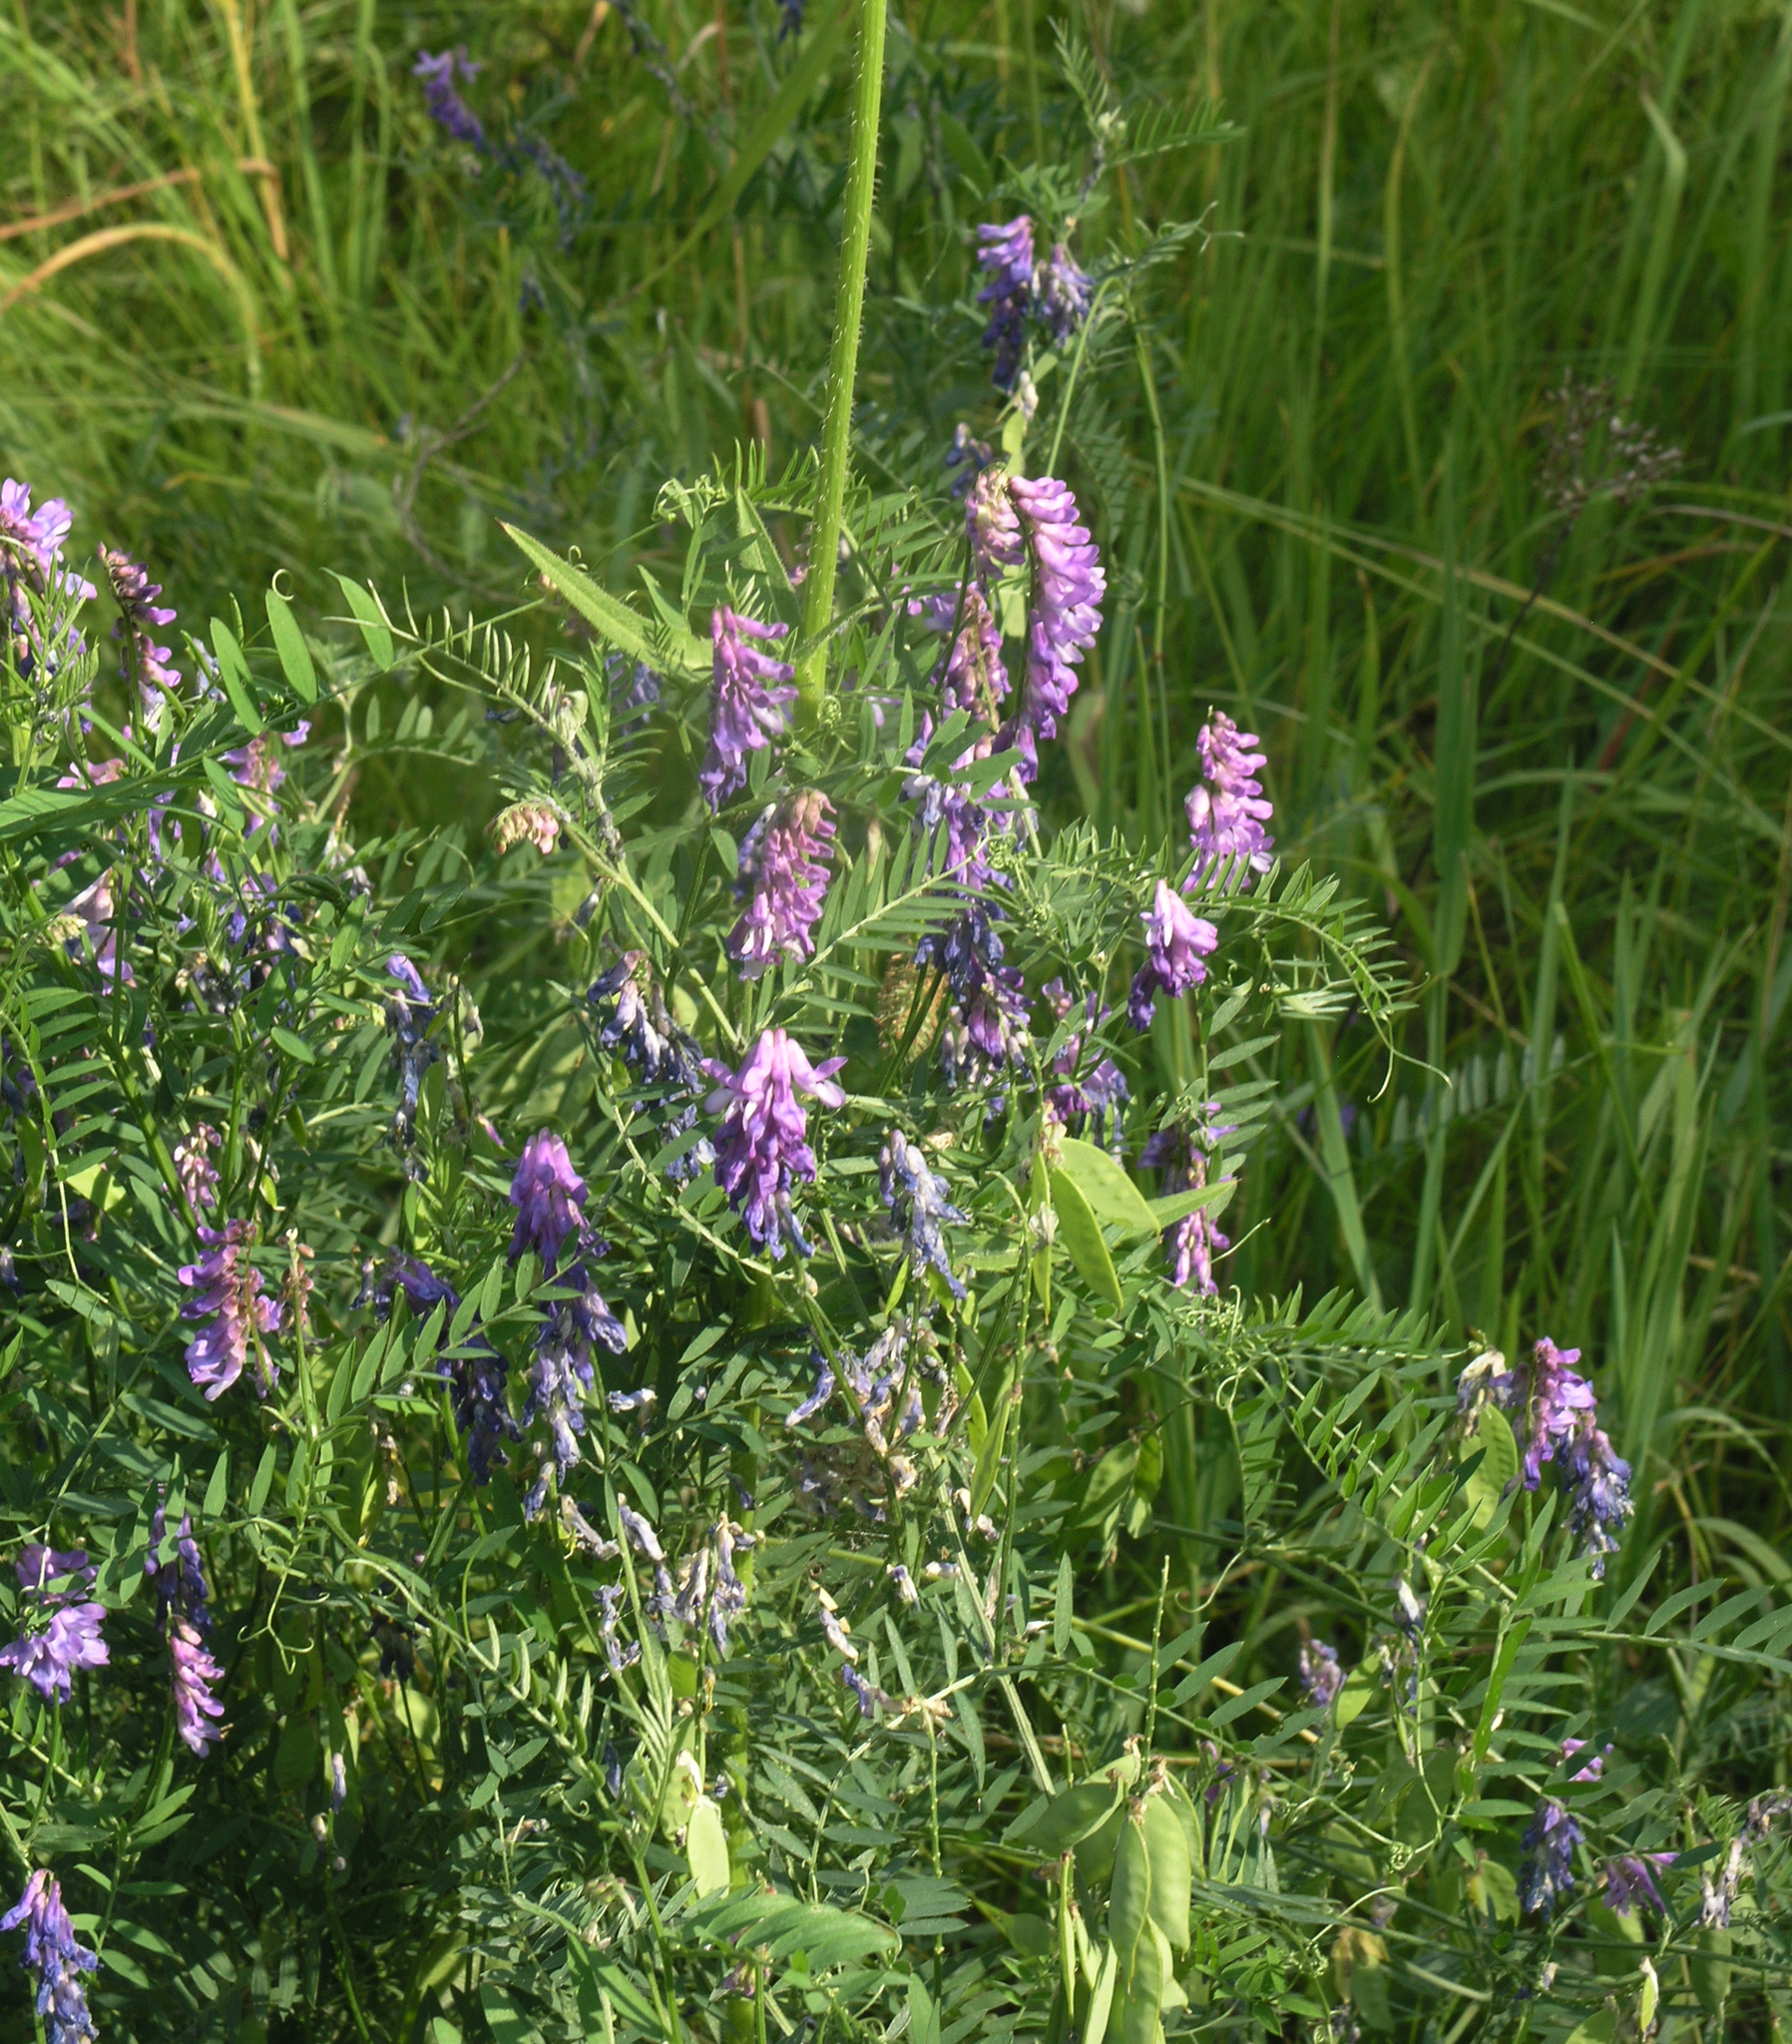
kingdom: Plantae
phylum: Tracheophyta
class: Magnoliopsida
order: Fabales
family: Fabaceae
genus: Vicia
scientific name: Vicia cracca
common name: Bird vetch
